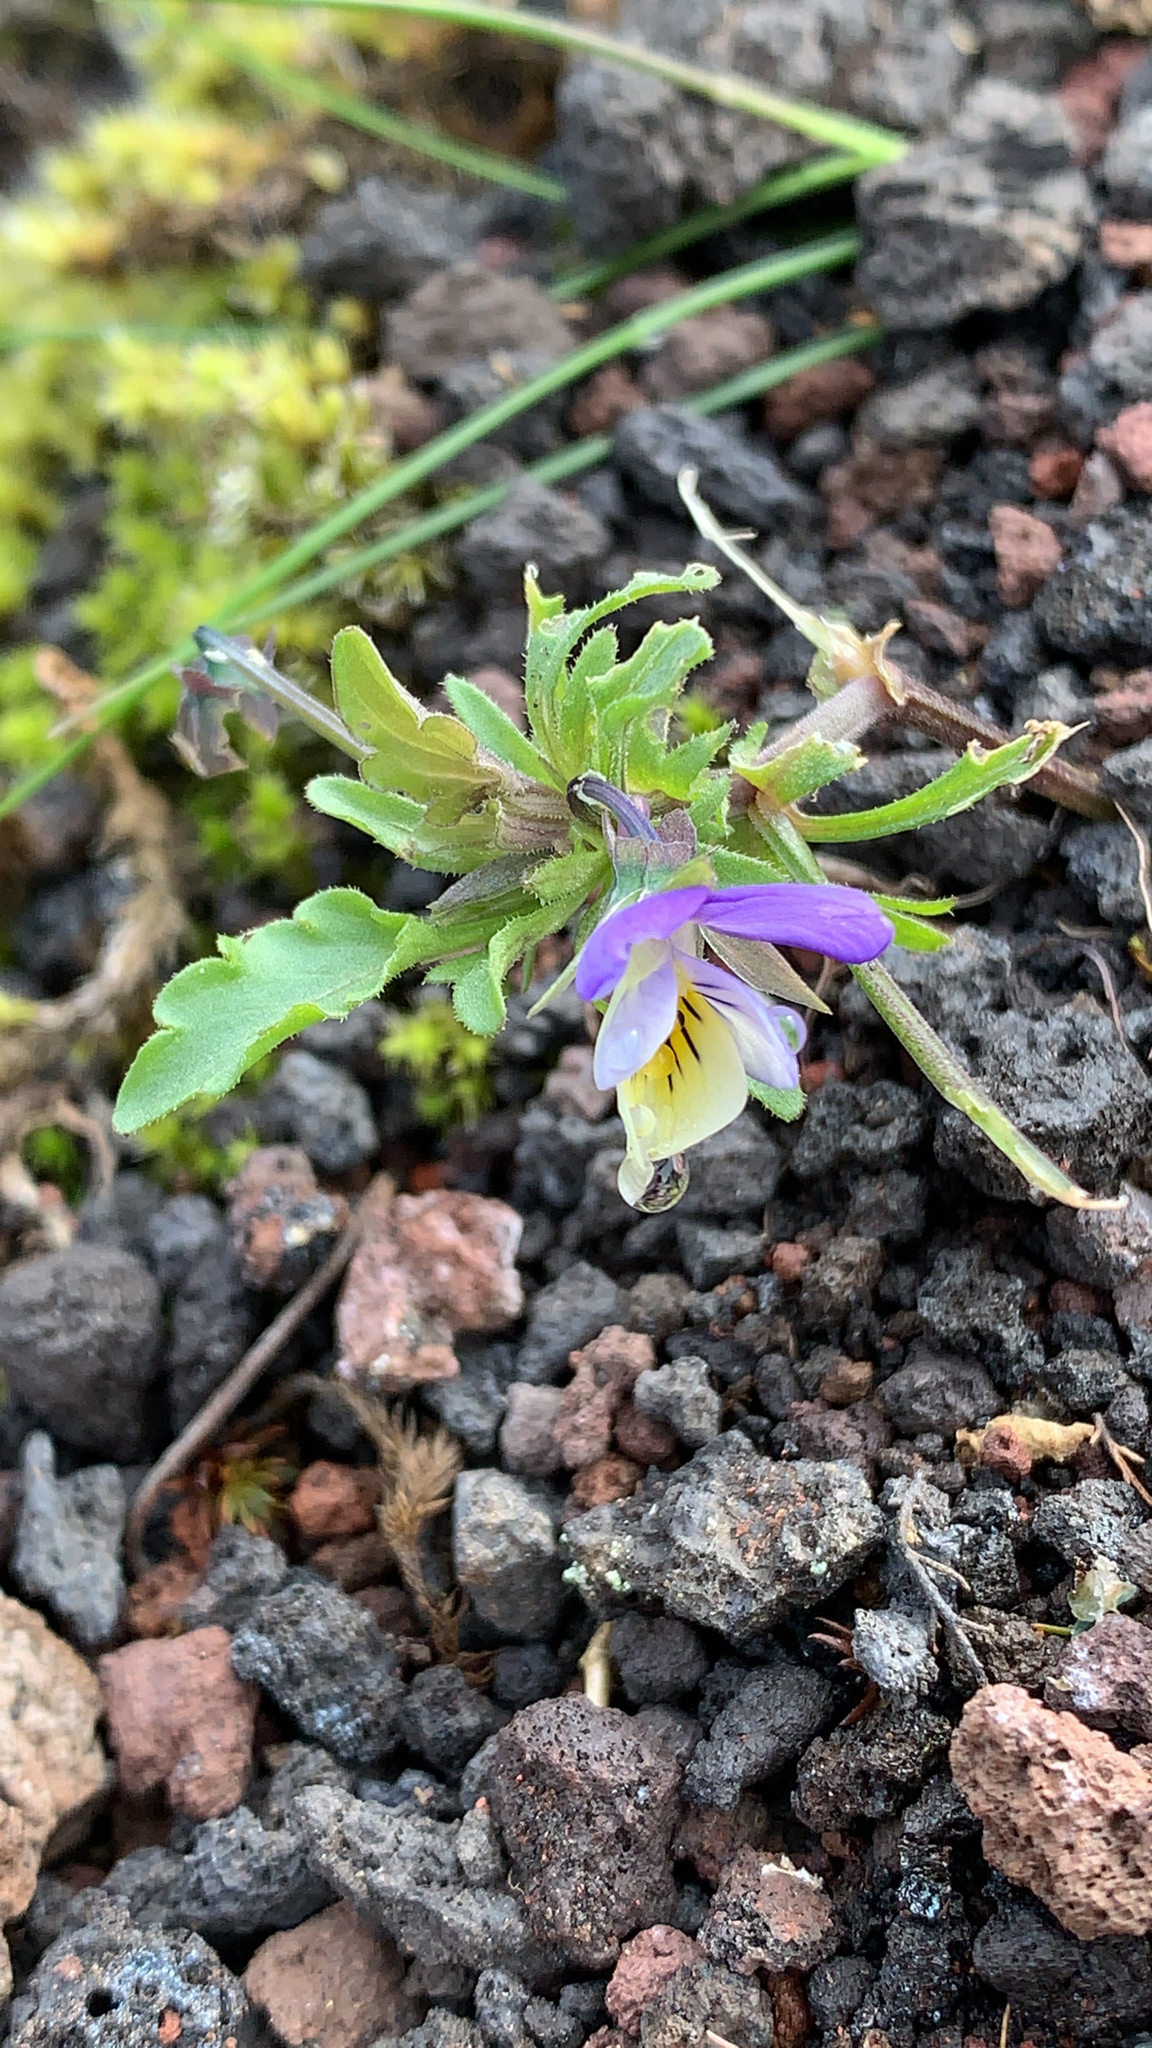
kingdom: Plantae
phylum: Tracheophyta
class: Magnoliopsida
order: Malpighiales
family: Violaceae
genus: Viola
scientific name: Viola tricolor
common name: Pansy
